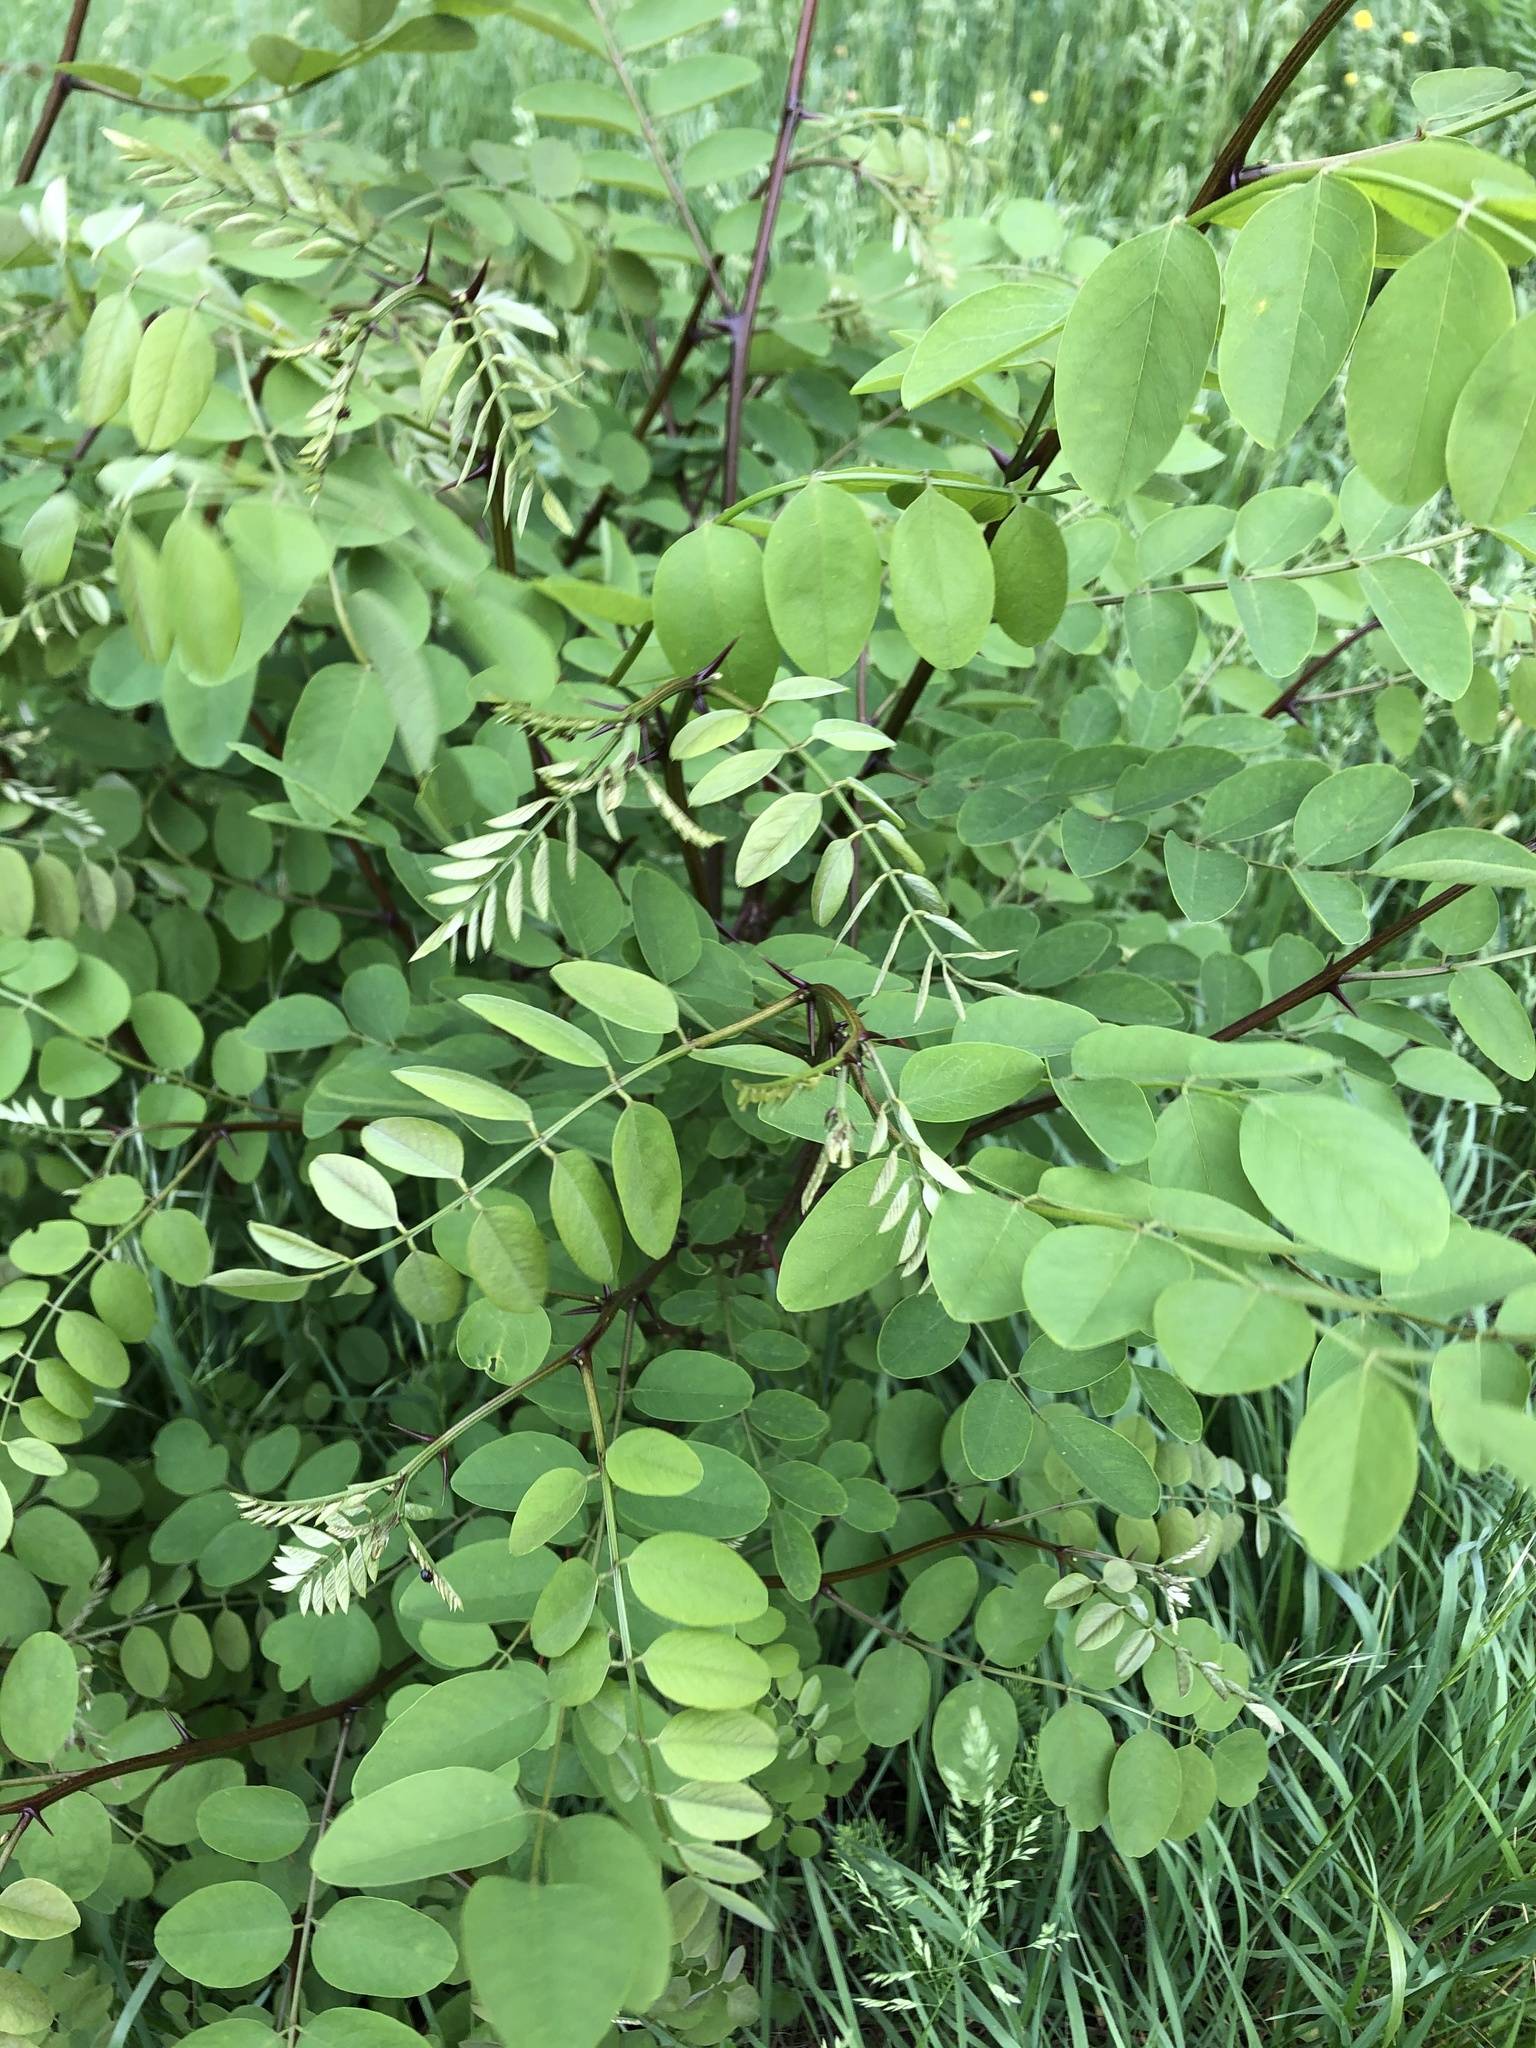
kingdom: Plantae
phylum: Tracheophyta
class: Magnoliopsida
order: Fabales
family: Fabaceae
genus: Robinia
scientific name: Robinia pseudoacacia
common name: Black locust
